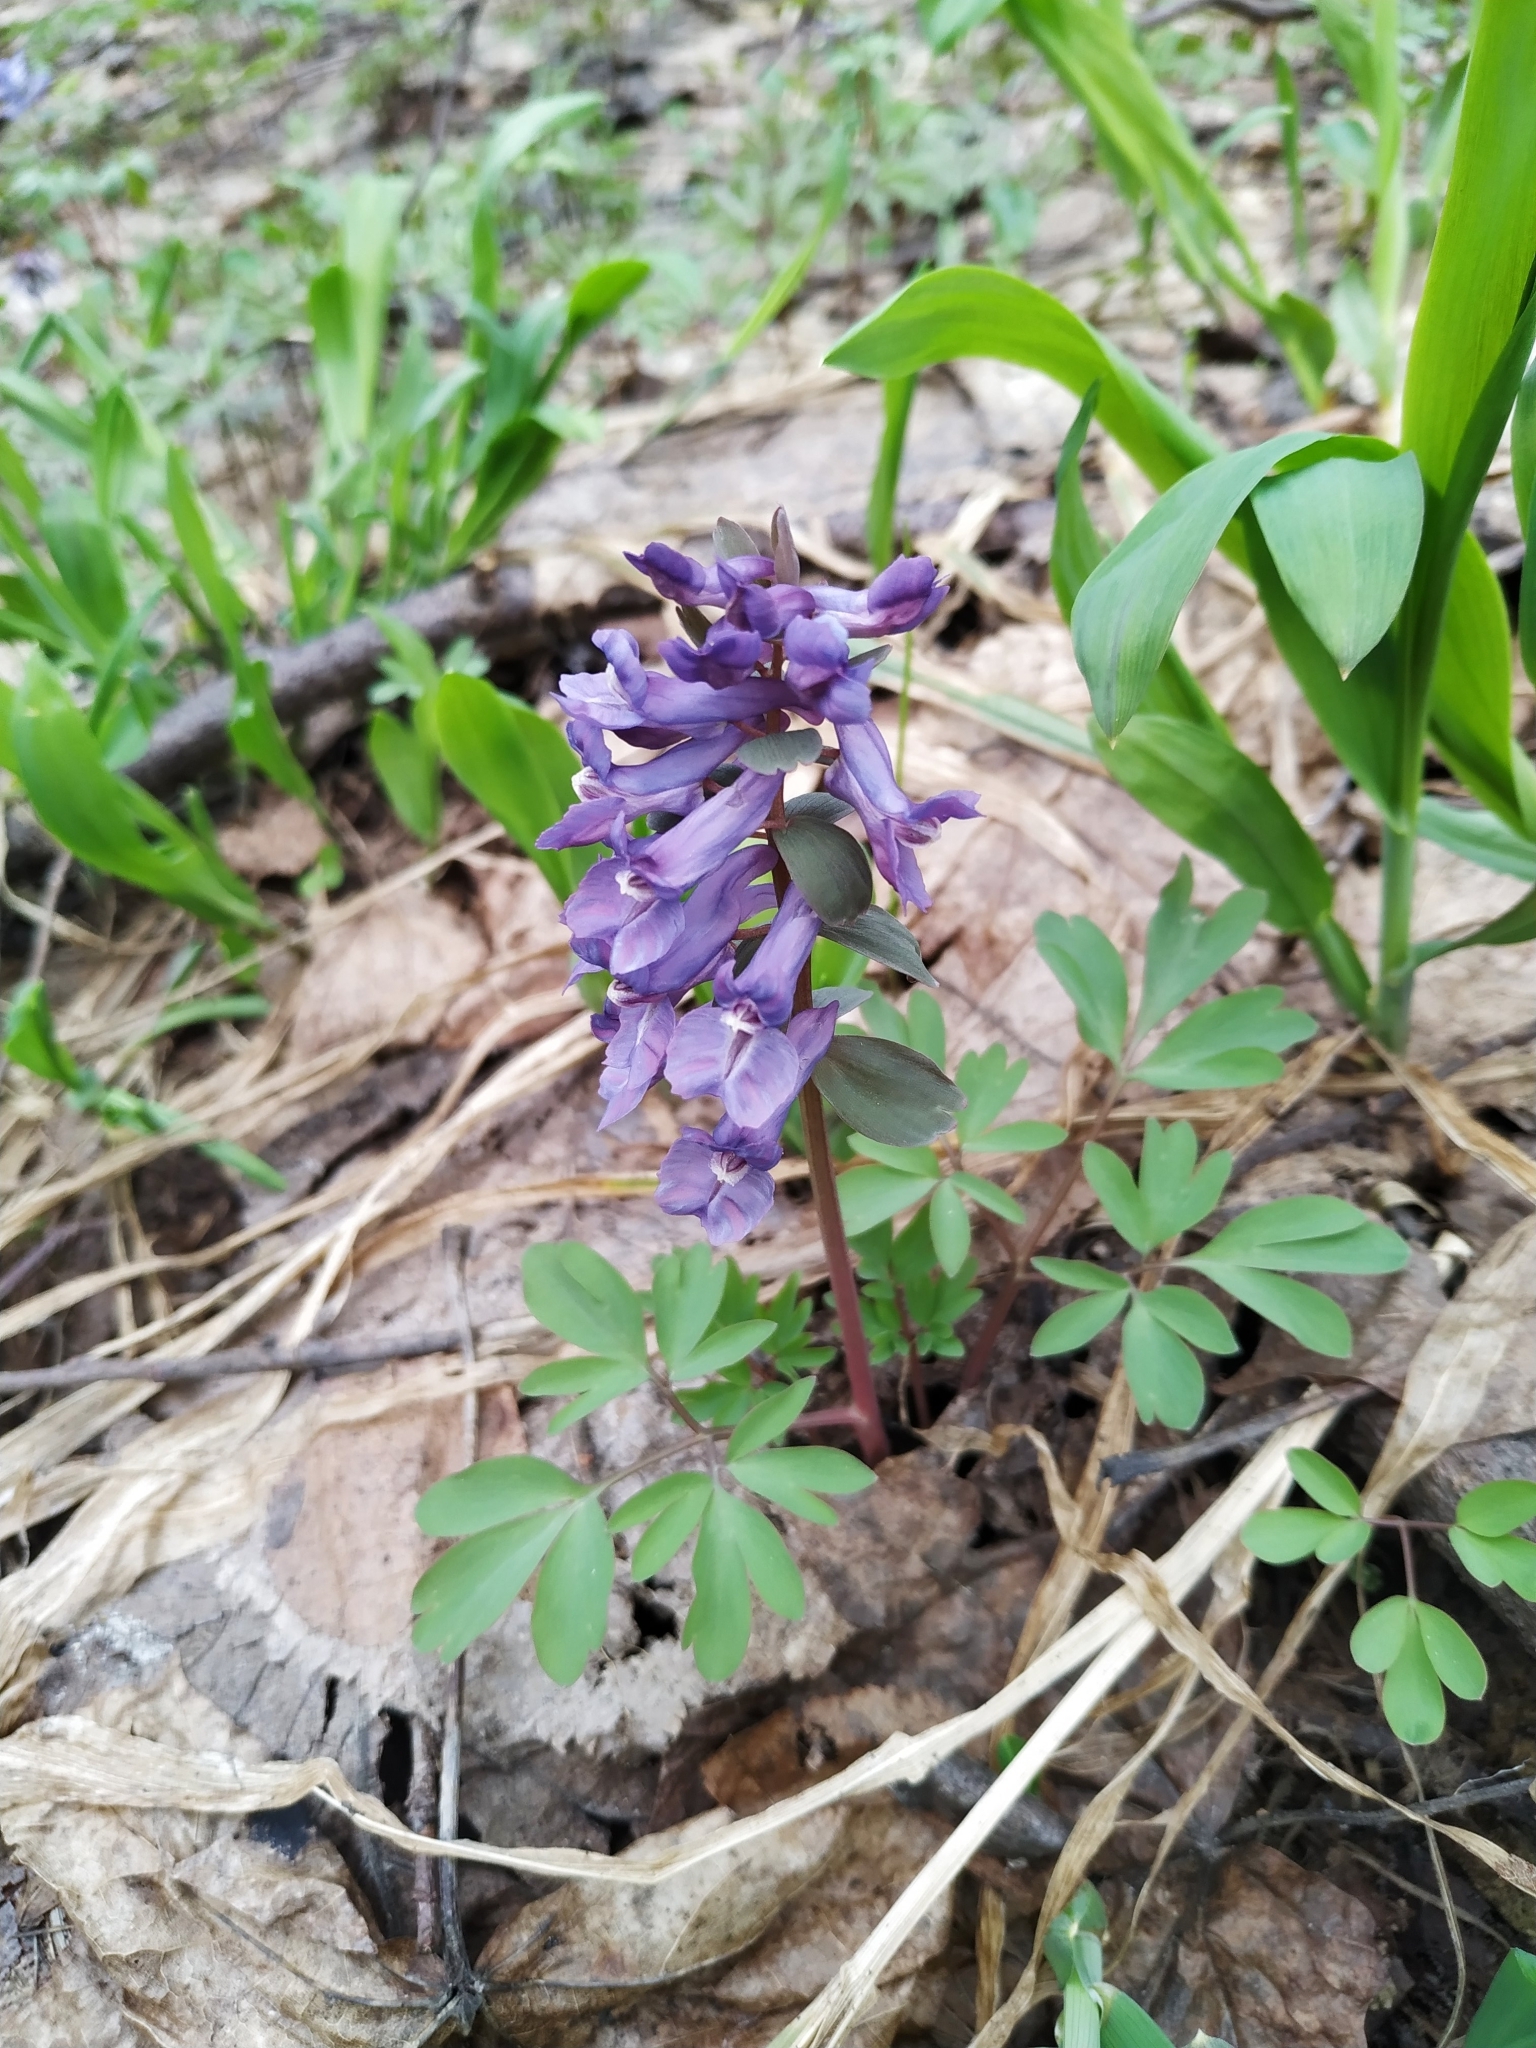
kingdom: Plantae
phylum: Tracheophyta
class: Magnoliopsida
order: Ranunculales
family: Papaveraceae
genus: Corydalis
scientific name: Corydalis solida
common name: Bird-in-a-bush
